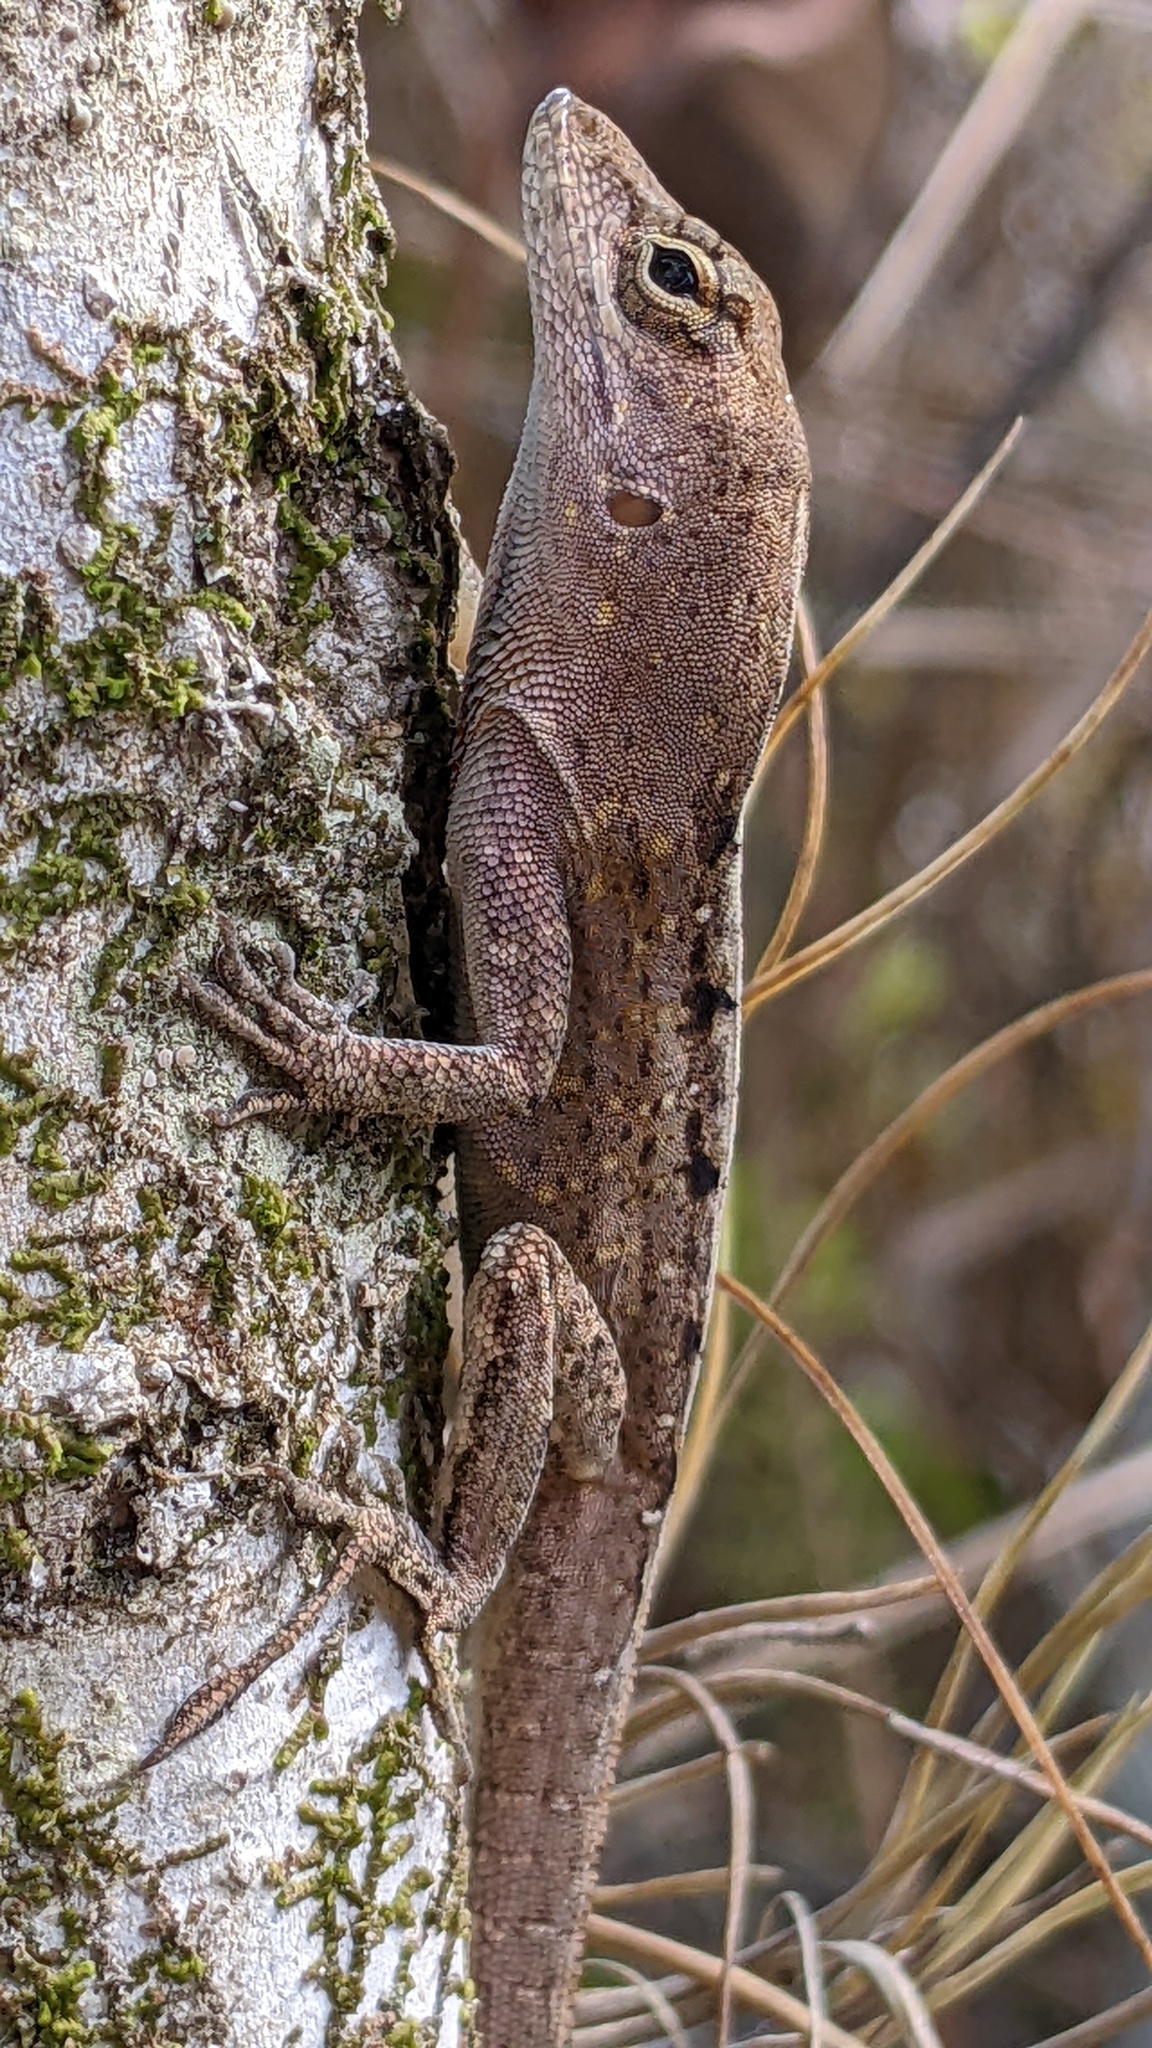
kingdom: Animalia
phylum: Chordata
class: Squamata
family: Dactyloidae
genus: Anolis
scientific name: Anolis sagrei
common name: Brown anole
